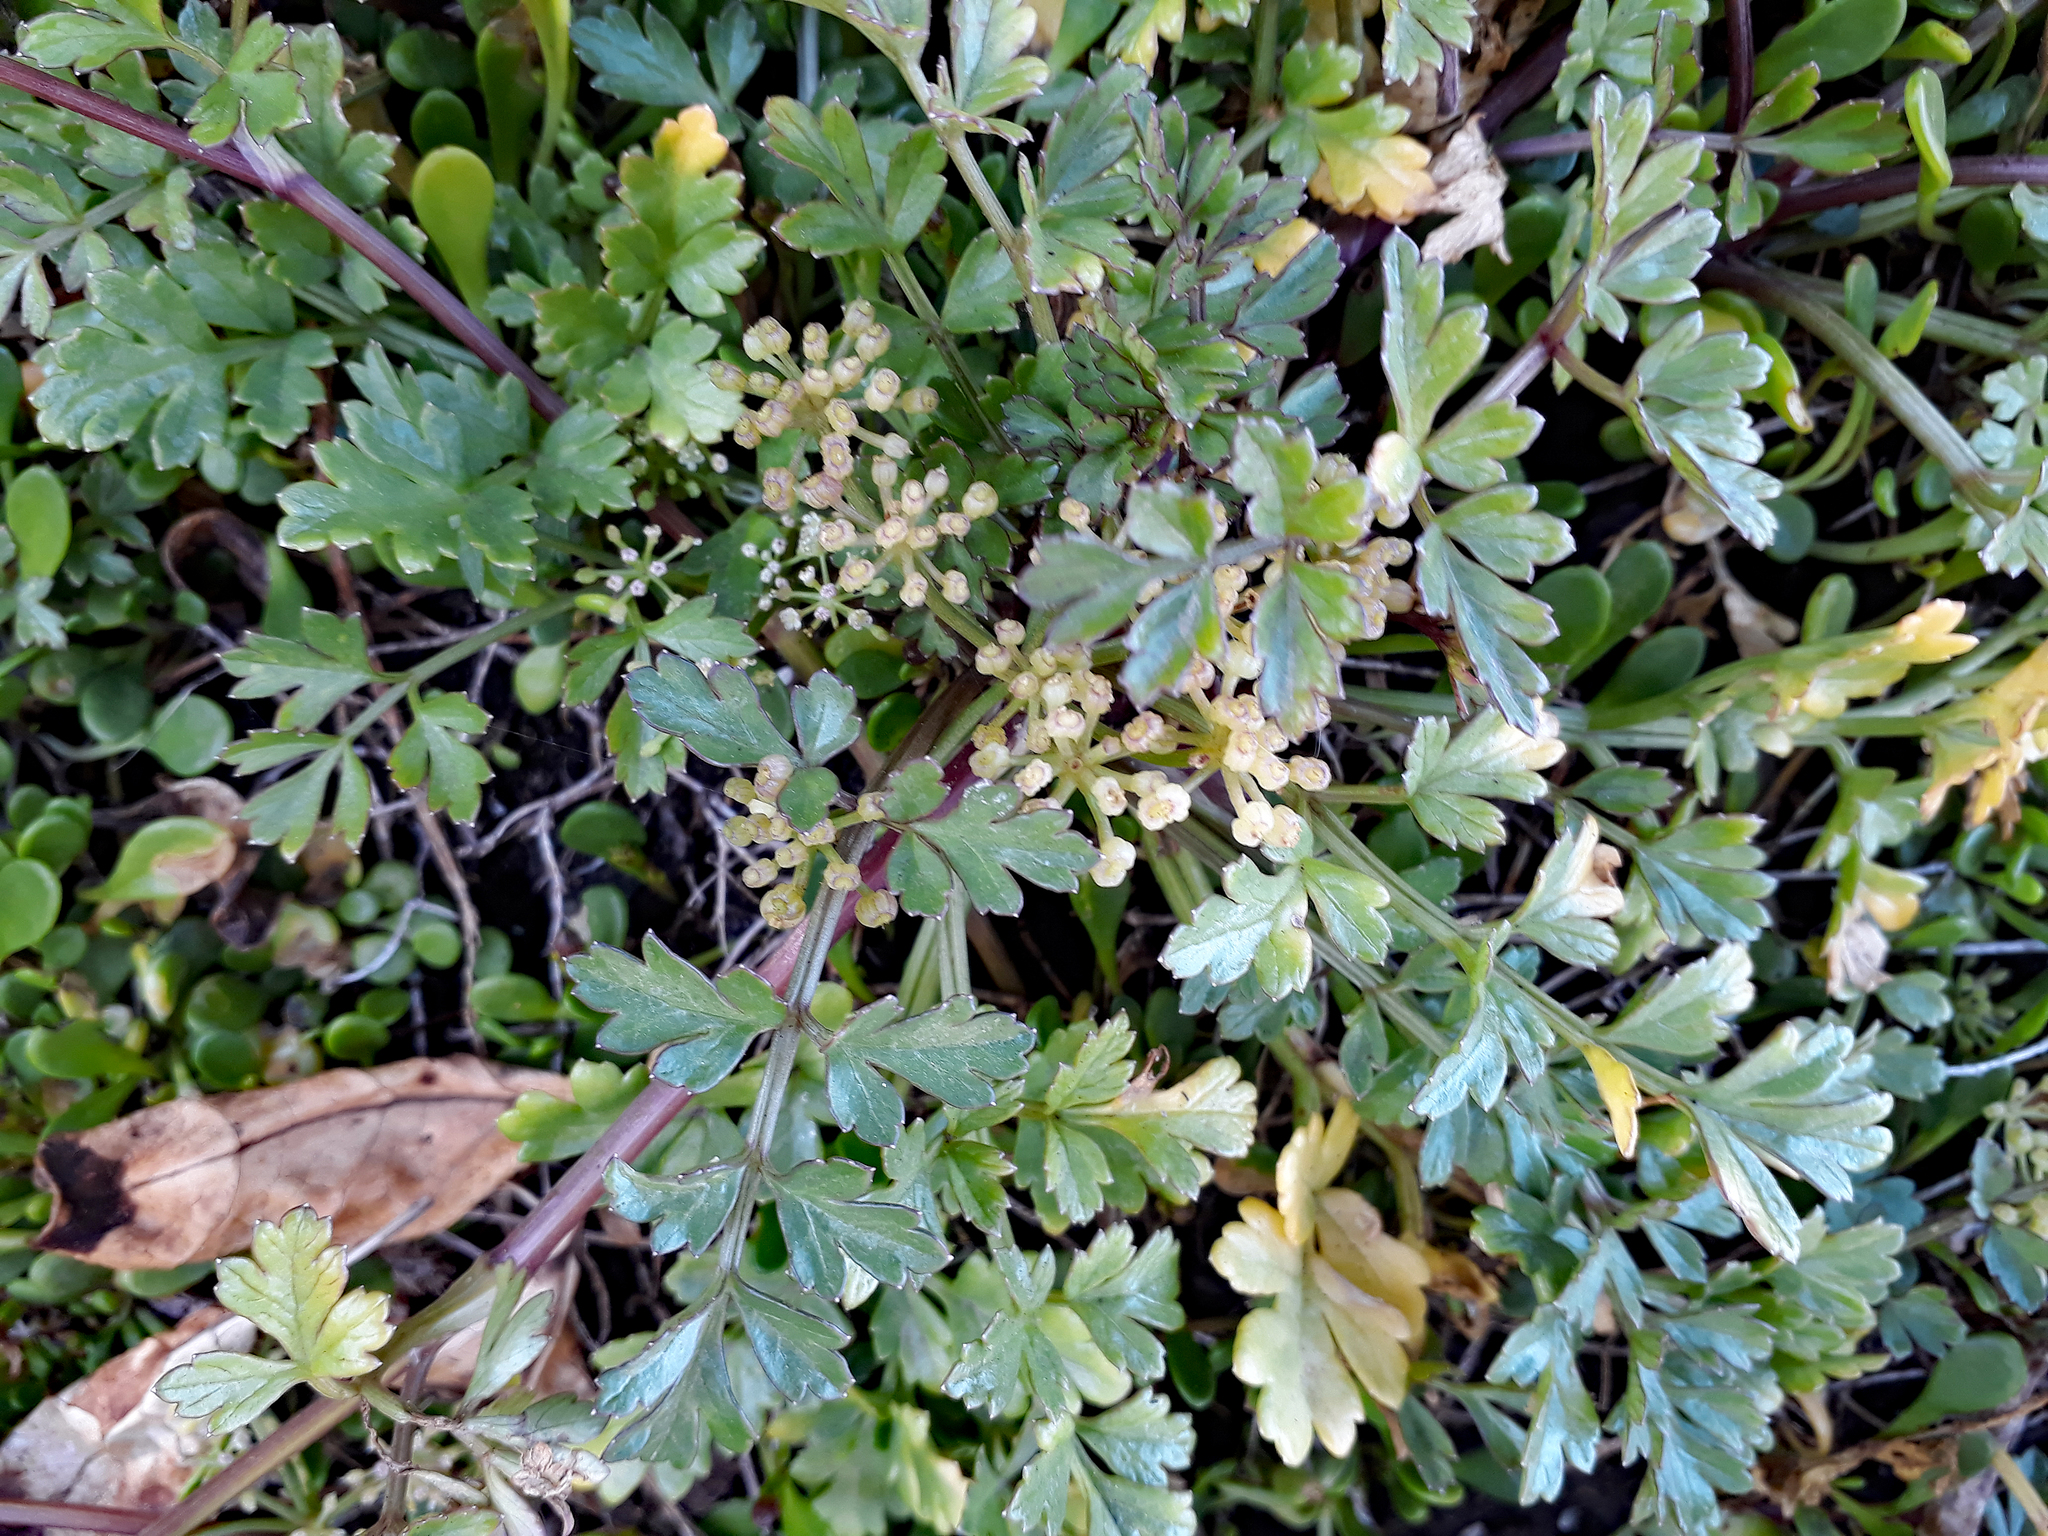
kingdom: Plantae
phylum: Tracheophyta
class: Magnoliopsida
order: Apiales
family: Apiaceae
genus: Apium
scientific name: Apium prostratum
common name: Prostrate marshwort
